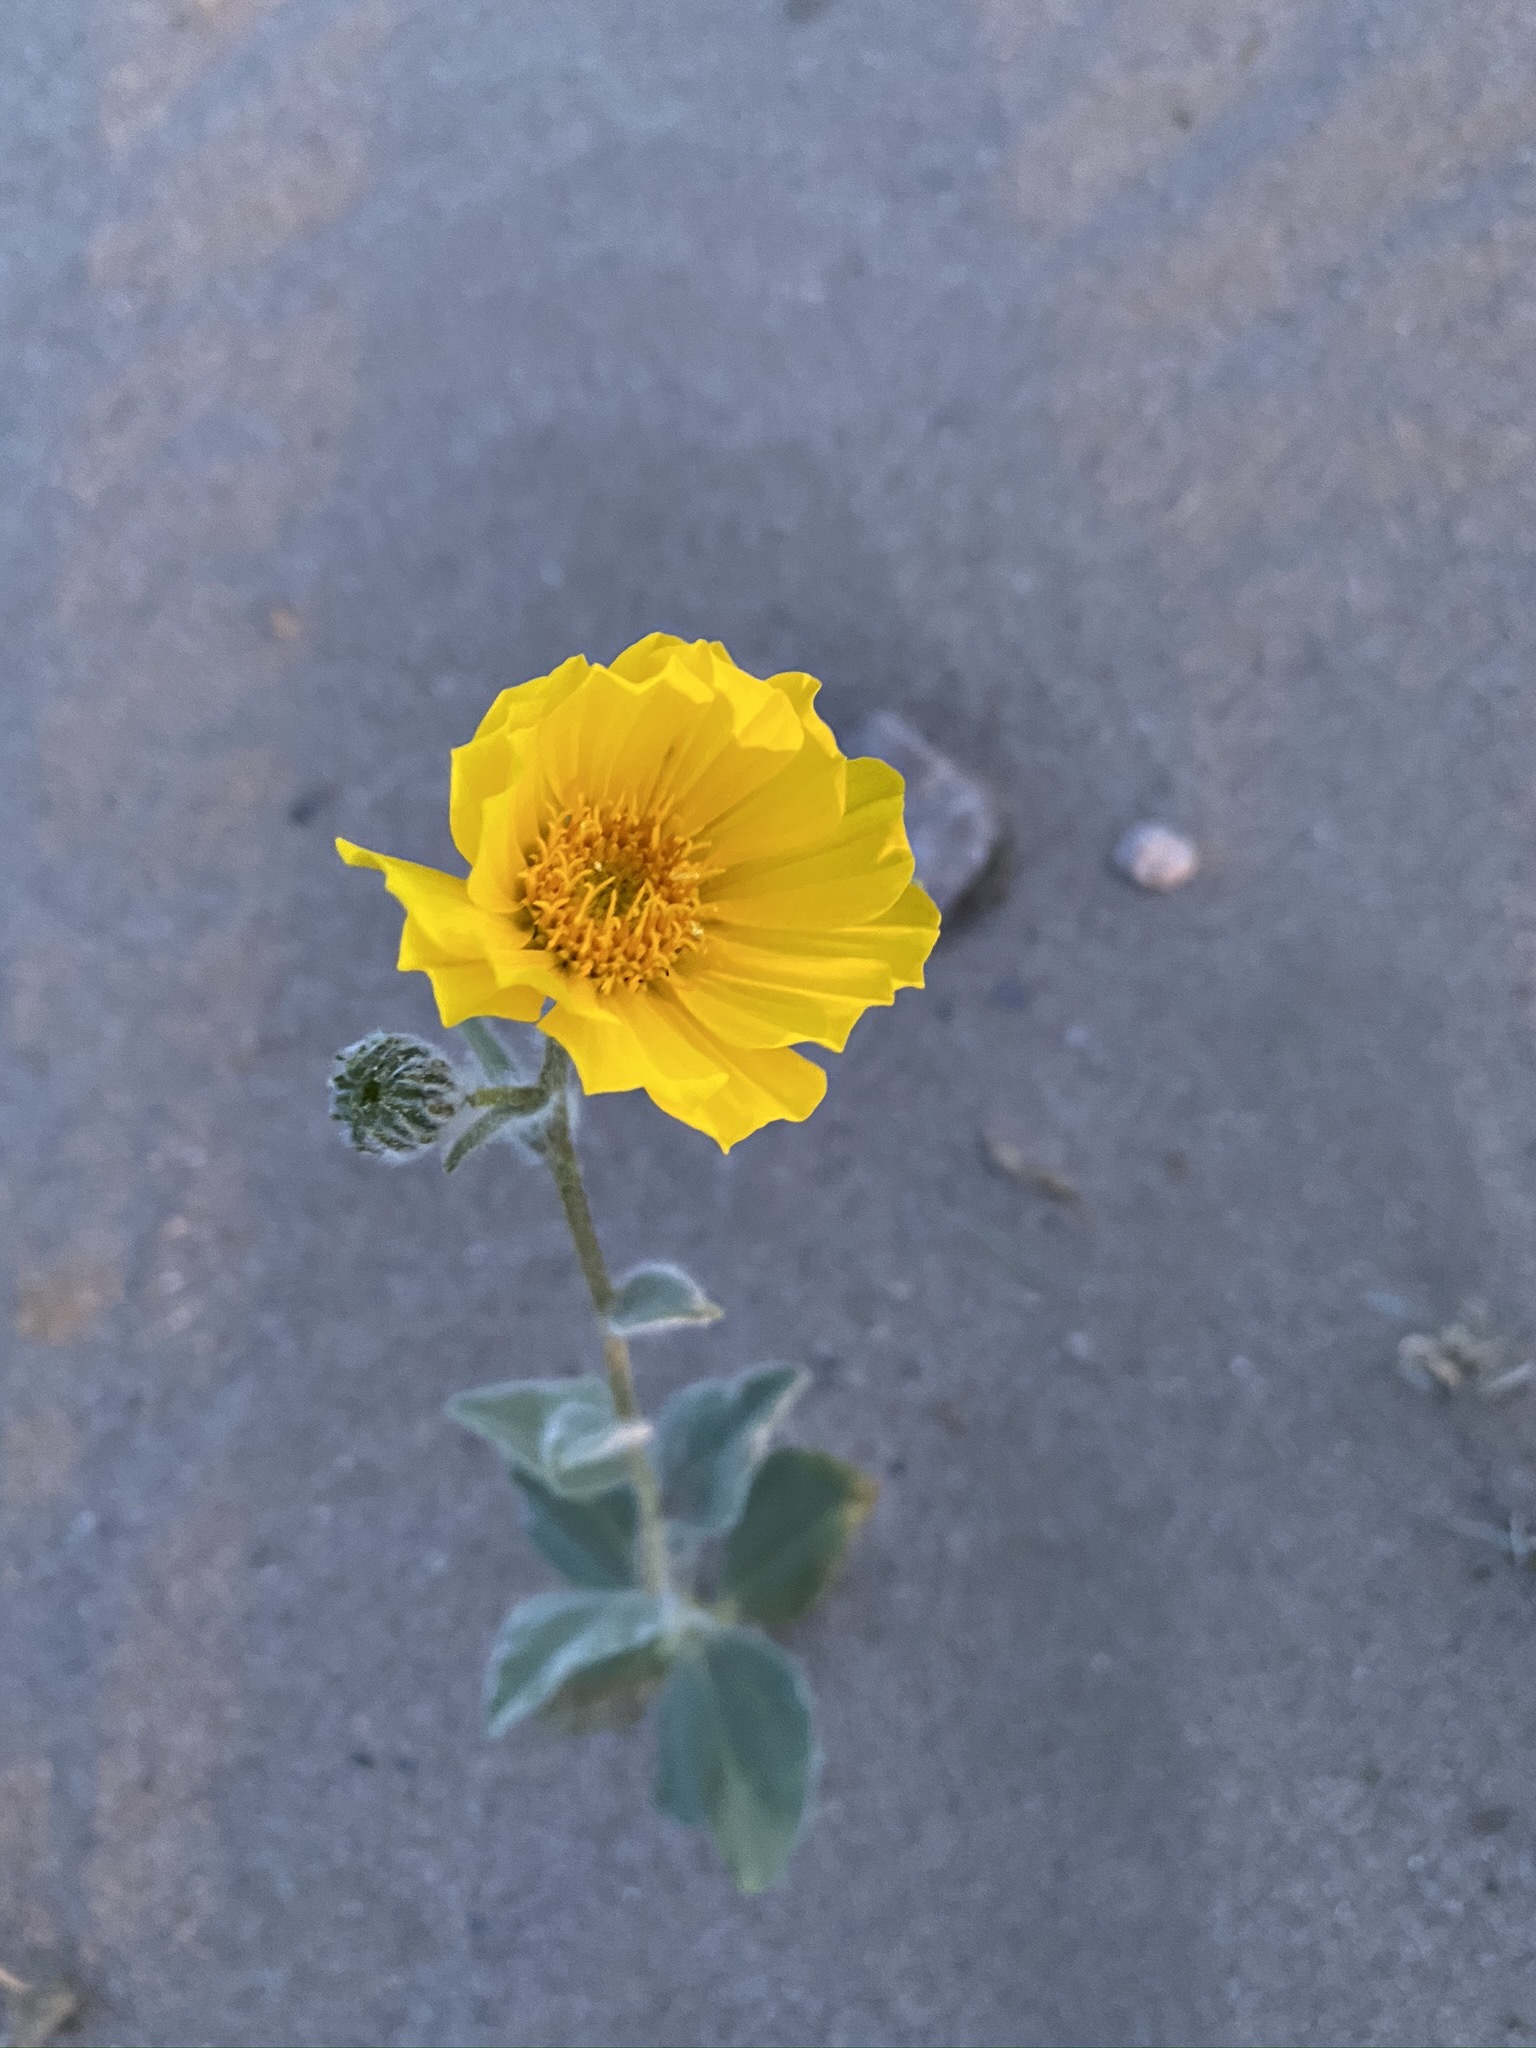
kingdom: Plantae
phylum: Tracheophyta
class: Magnoliopsida
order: Asterales
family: Asteraceae
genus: Geraea
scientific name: Geraea canescens
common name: Desert-gold
